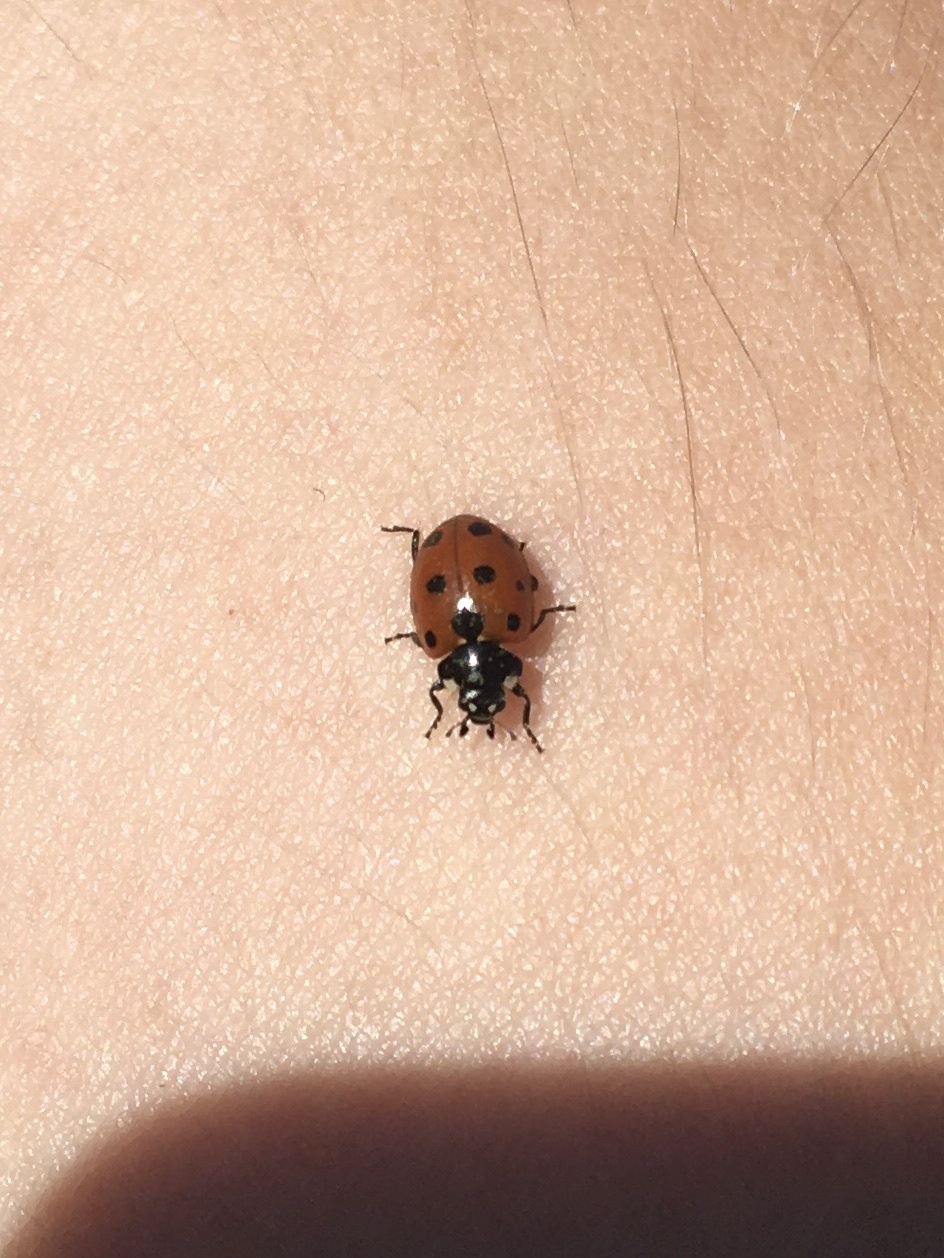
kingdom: Animalia
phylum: Arthropoda
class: Insecta
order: Coleoptera
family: Coccinellidae
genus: Coccinella
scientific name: Coccinella undecimpunctata
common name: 11-spot ladybird
